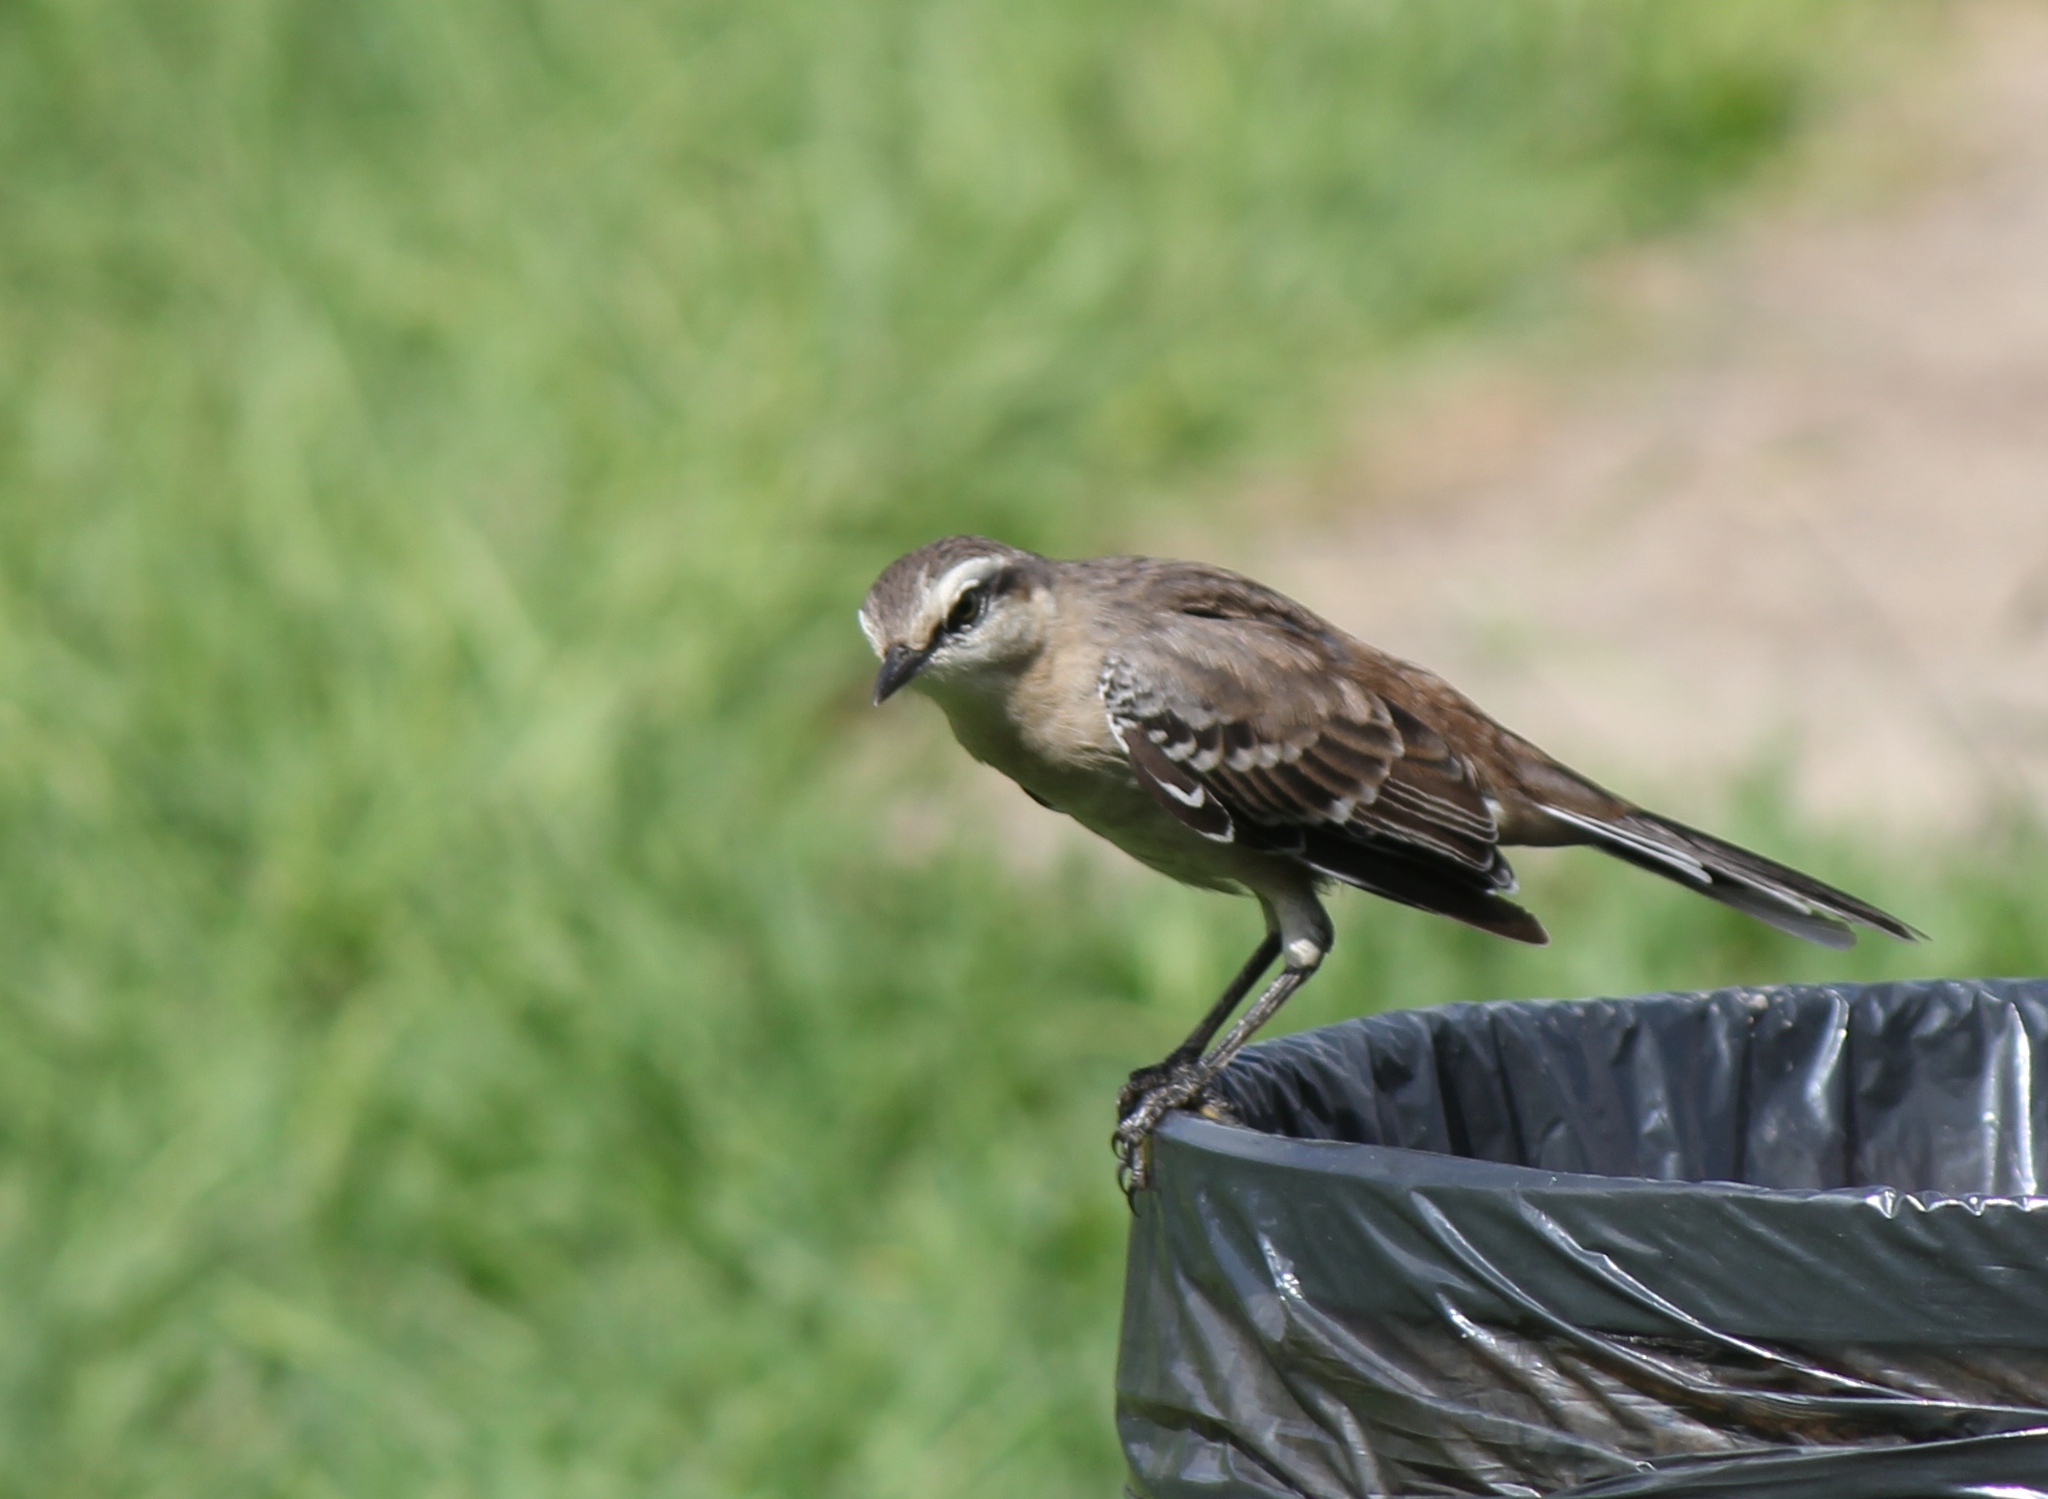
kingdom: Animalia
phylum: Chordata
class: Aves
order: Passeriformes
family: Mimidae
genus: Mimus
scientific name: Mimus saturninus
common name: Chalk-browed mockingbird
